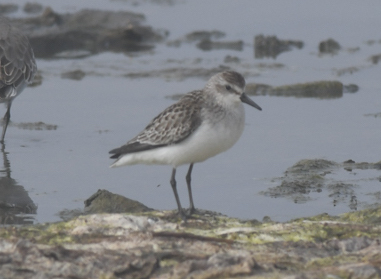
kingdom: Animalia
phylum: Chordata
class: Aves
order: Charadriiformes
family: Scolopacidae
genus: Calidris
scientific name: Calidris pusilla
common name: Semipalmated sandpiper
